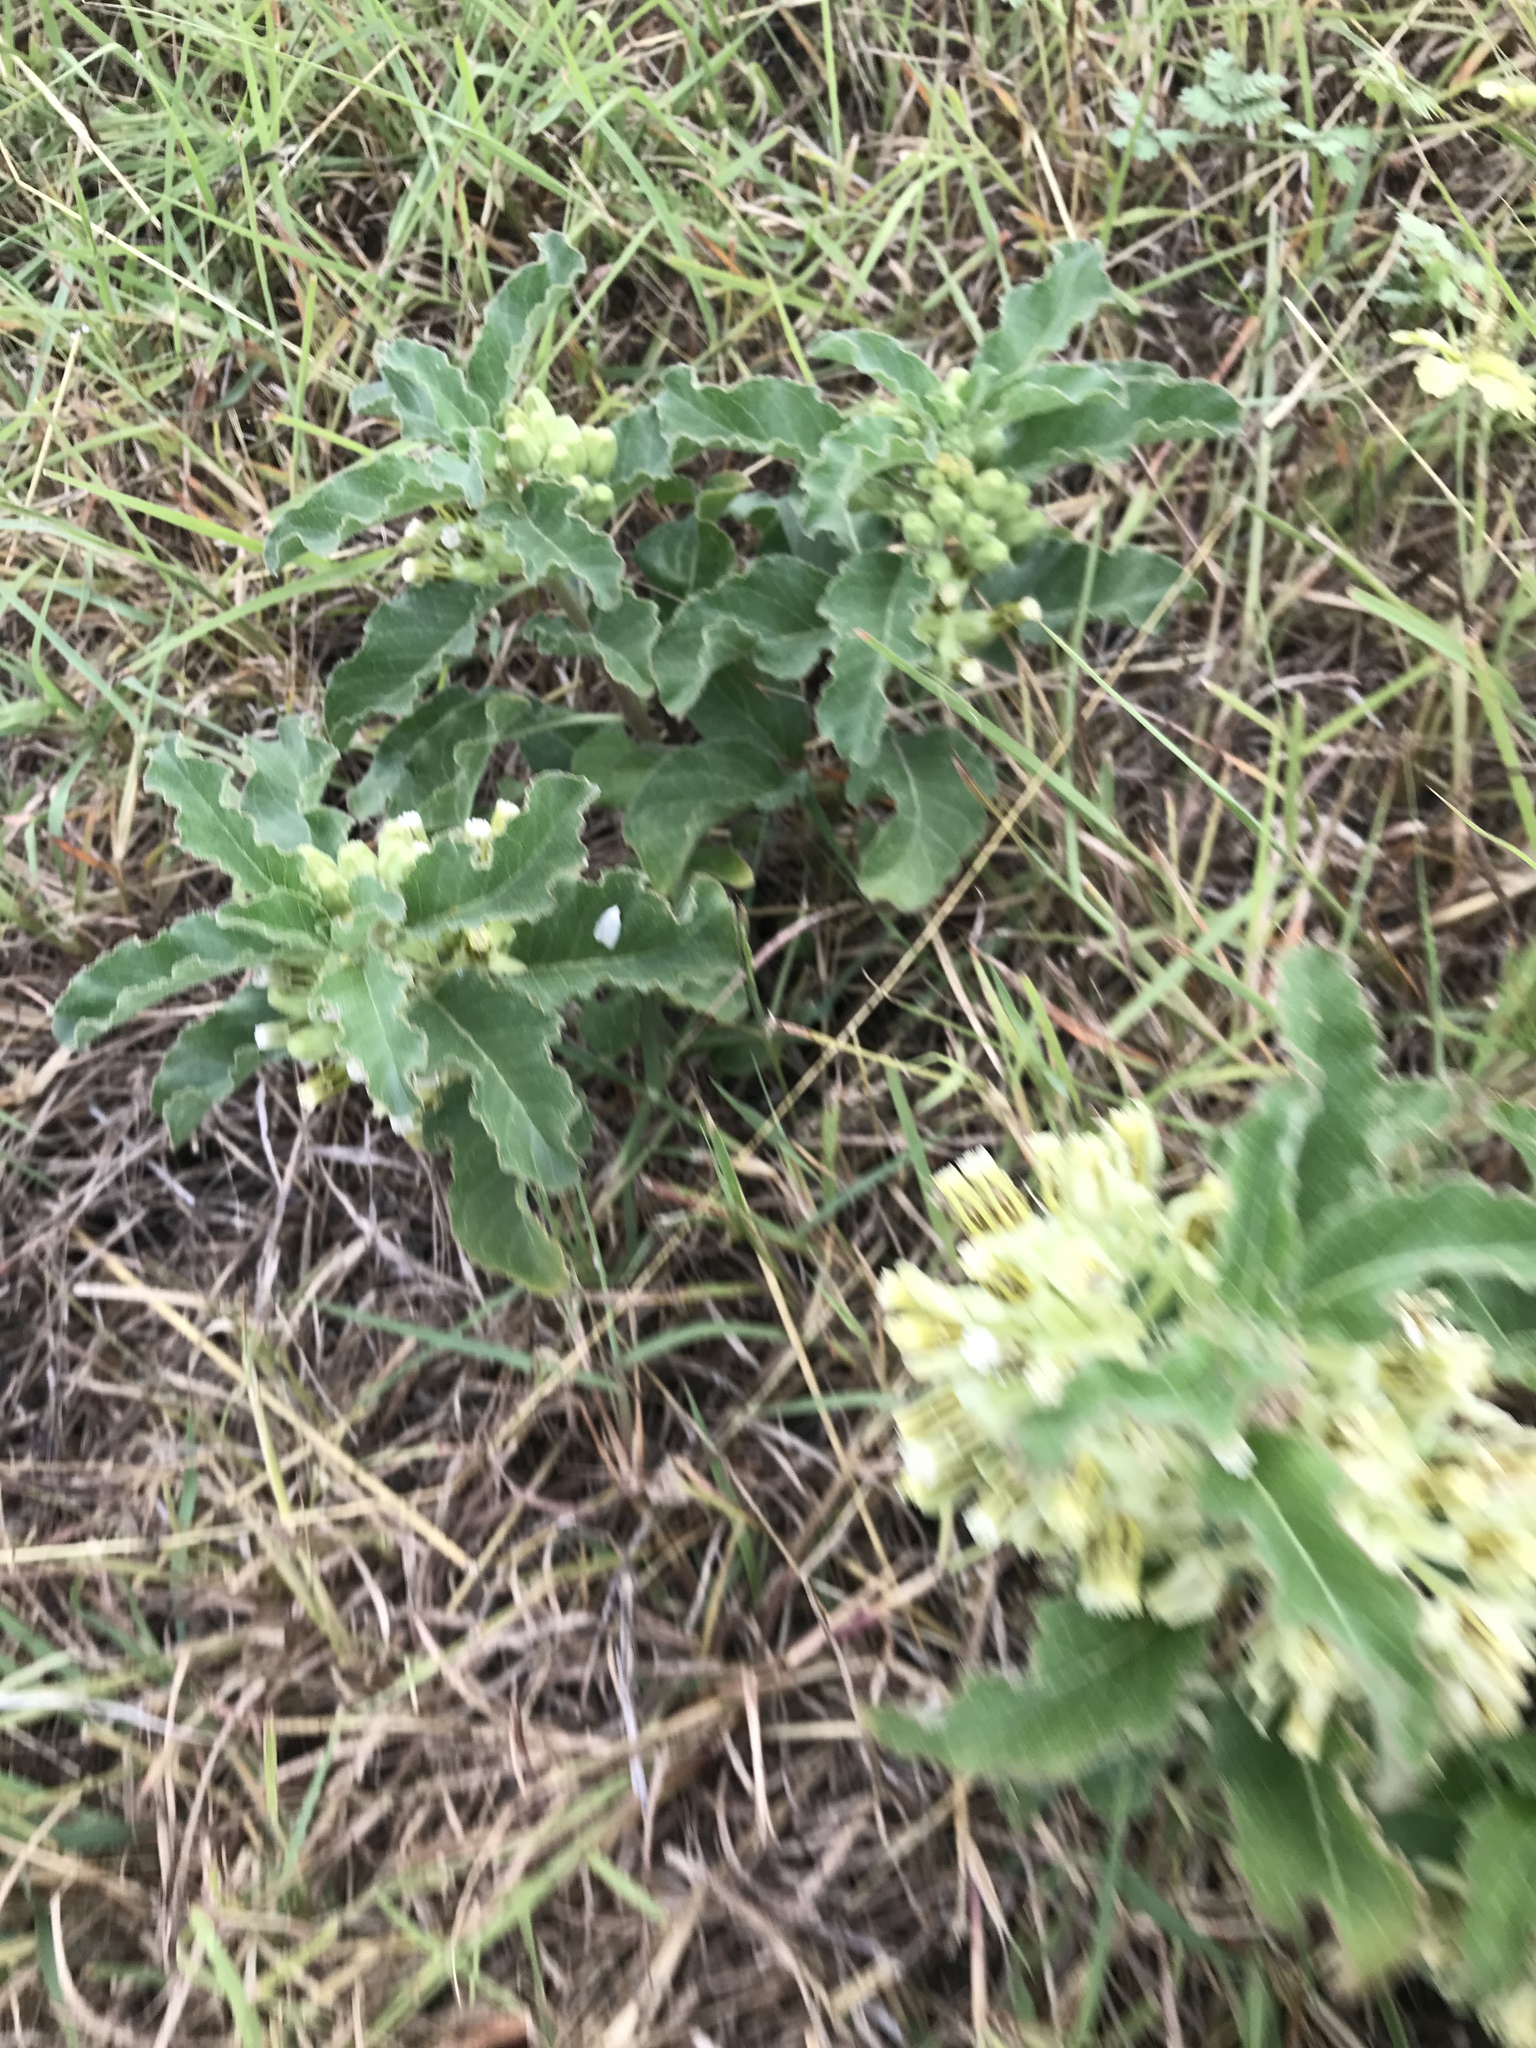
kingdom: Plantae
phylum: Tracheophyta
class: Magnoliopsida
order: Gentianales
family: Apocynaceae
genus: Asclepias
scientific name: Asclepias oenotheroides
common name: Zizotes milkweed
